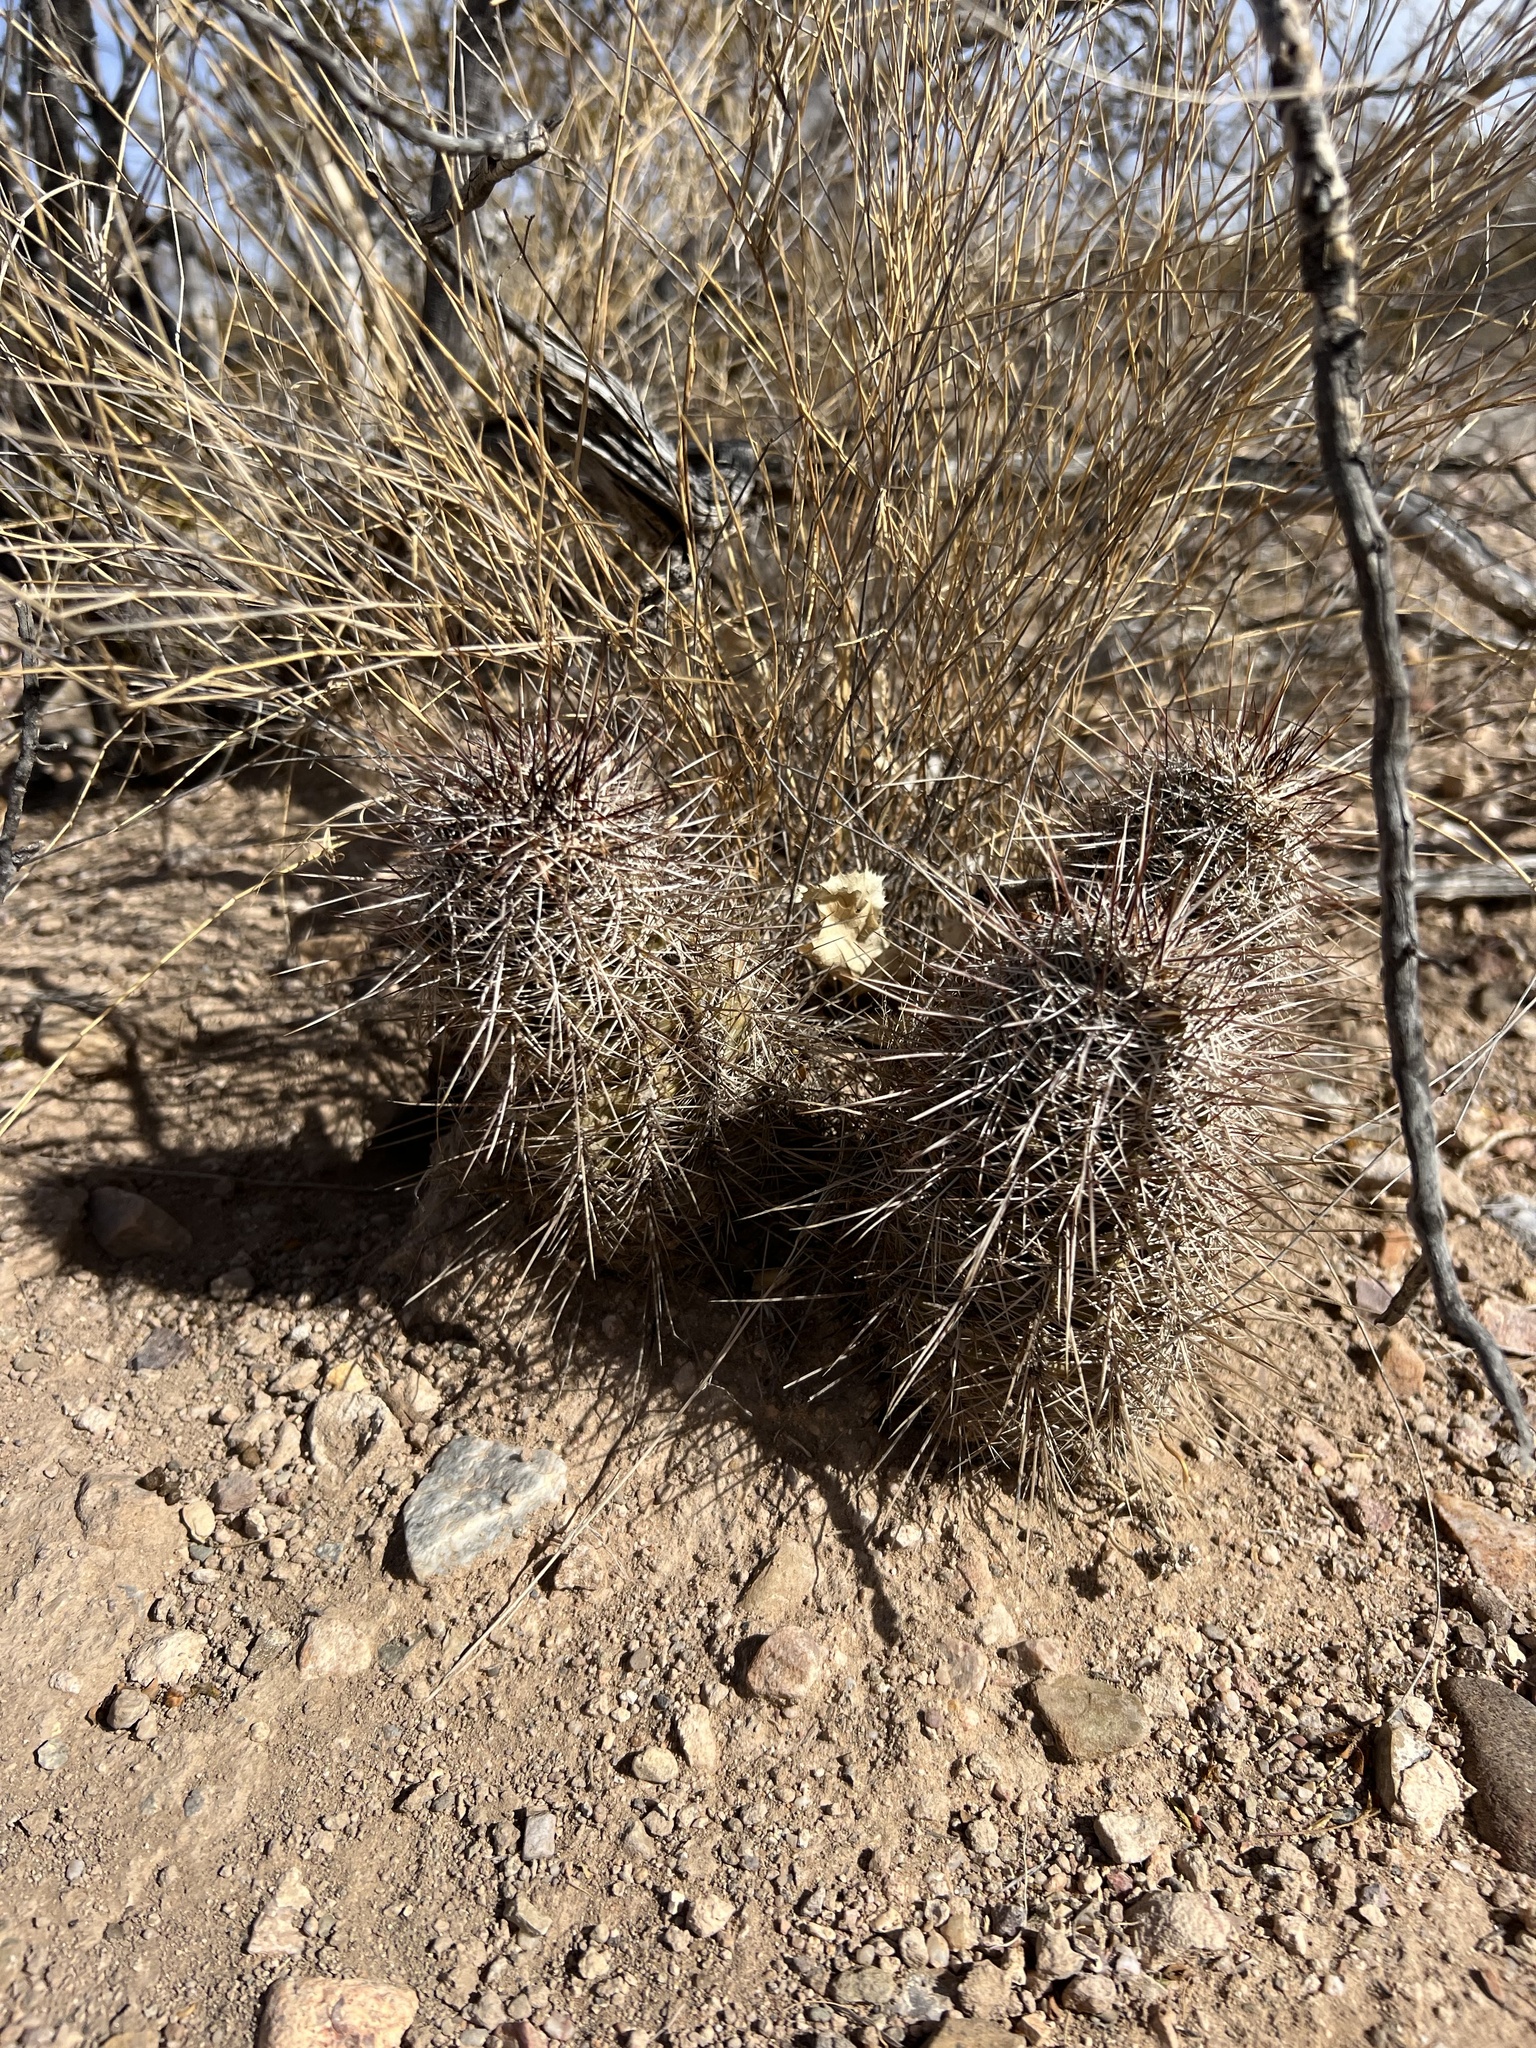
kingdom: Plantae
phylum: Tracheophyta
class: Magnoliopsida
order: Caryophyllales
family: Cactaceae
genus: Echinocereus
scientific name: Echinocereus fasciculatus
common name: Bundle hedgehog
